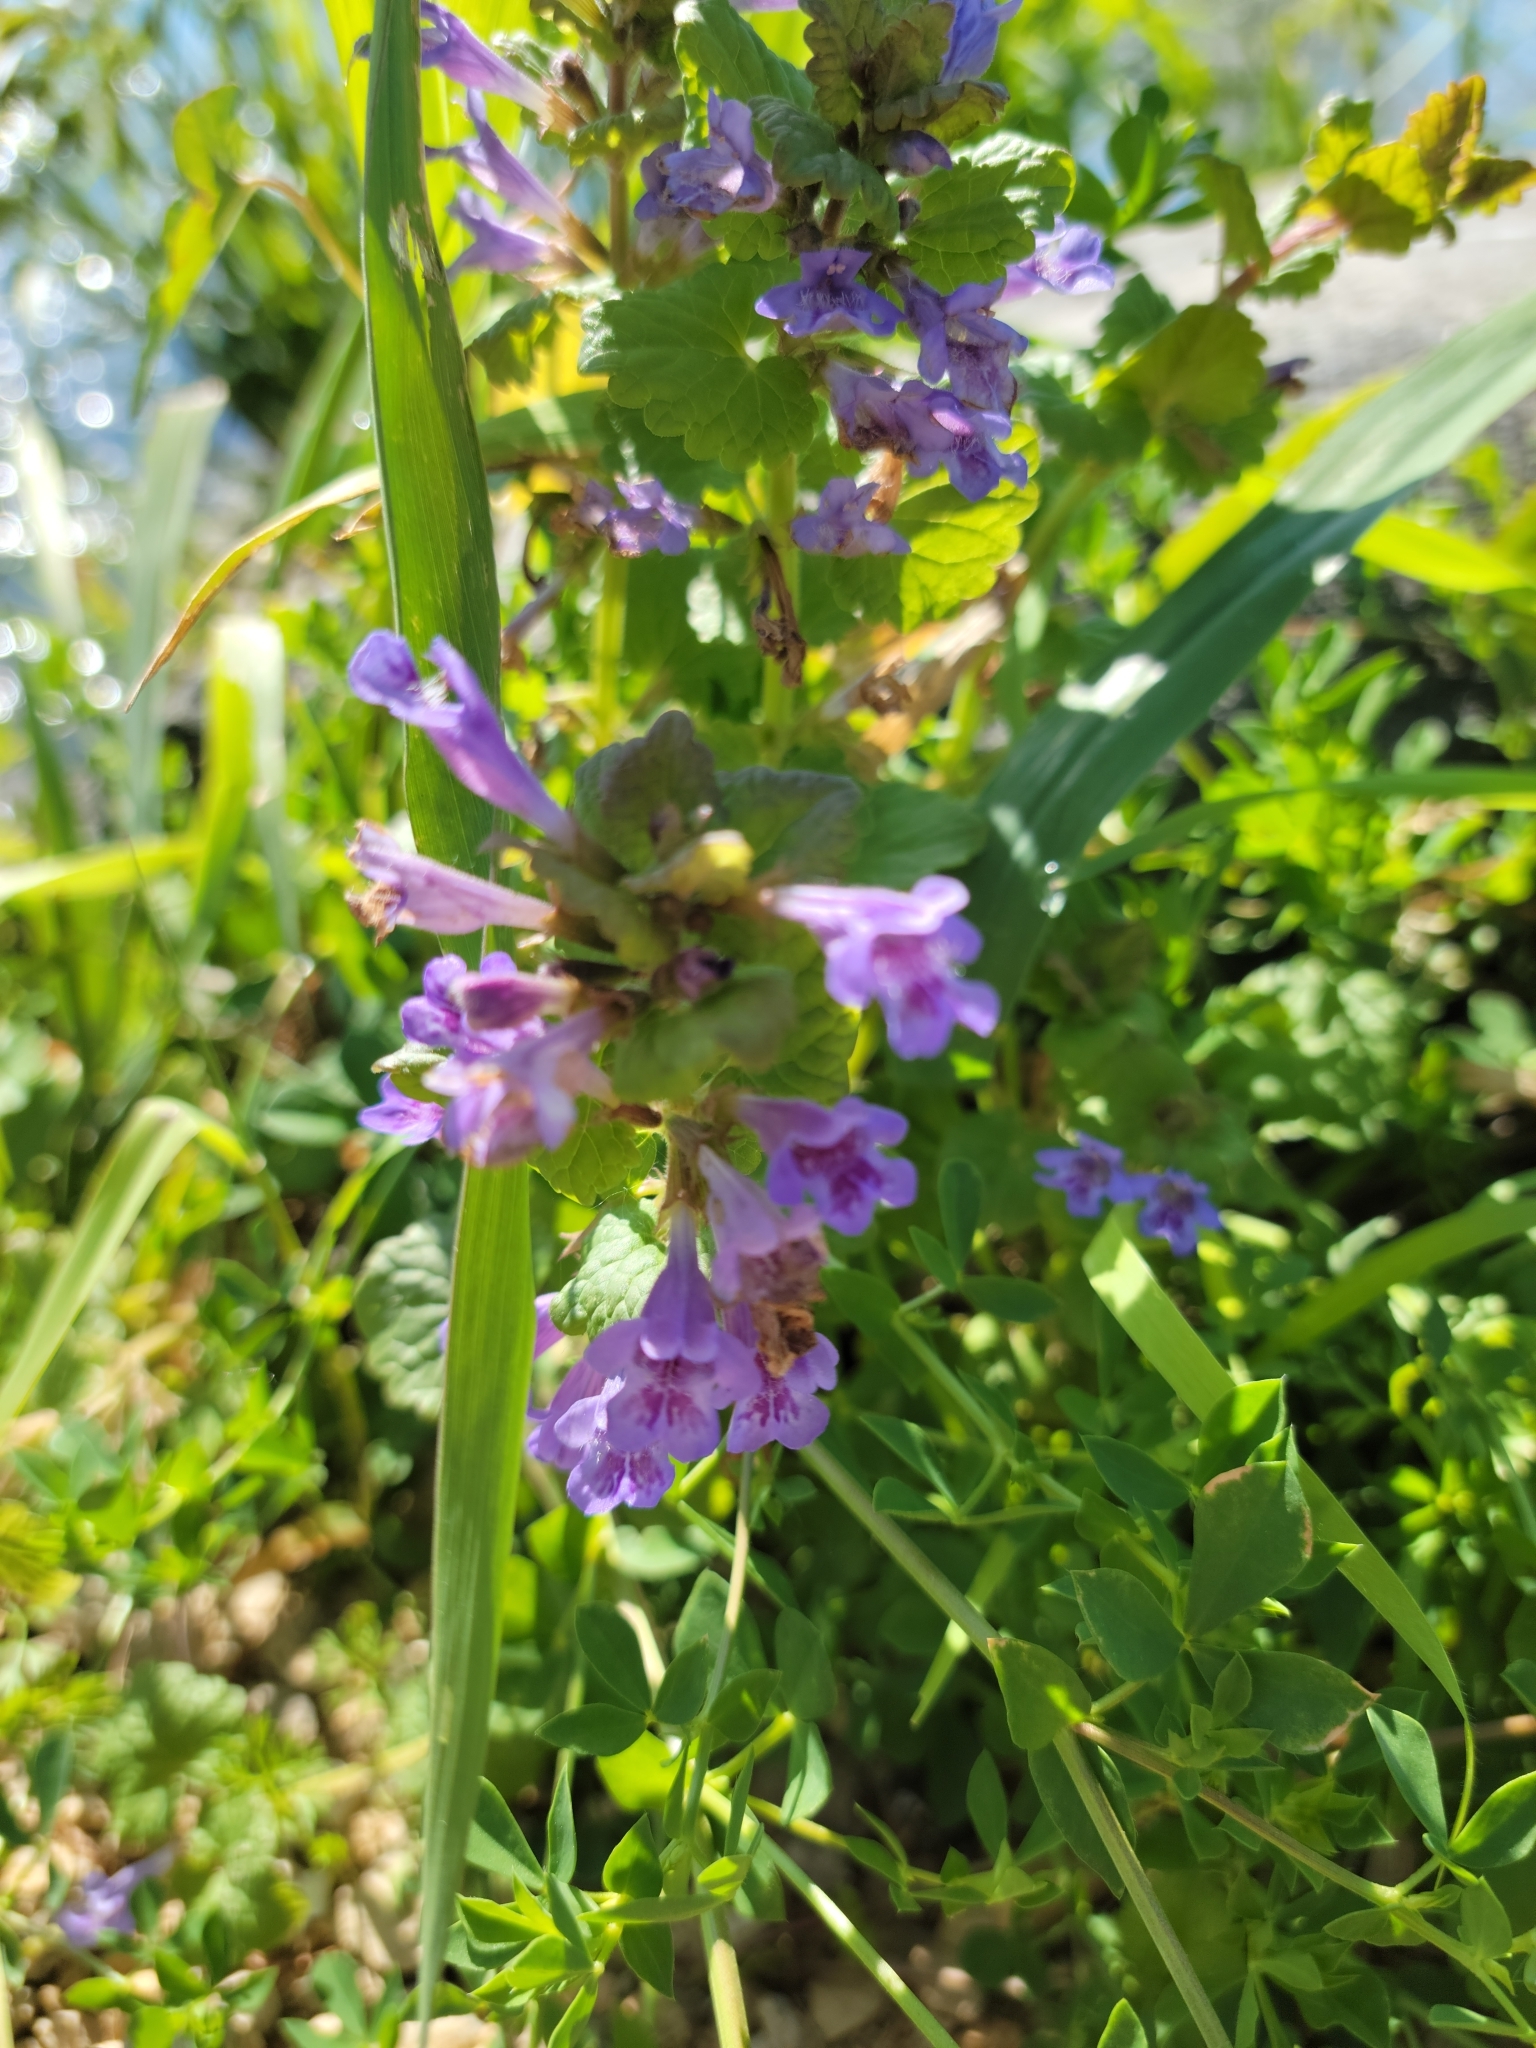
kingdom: Plantae
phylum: Tracheophyta
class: Magnoliopsida
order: Lamiales
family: Lamiaceae
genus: Glechoma
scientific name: Glechoma hederacea
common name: Ground ivy
